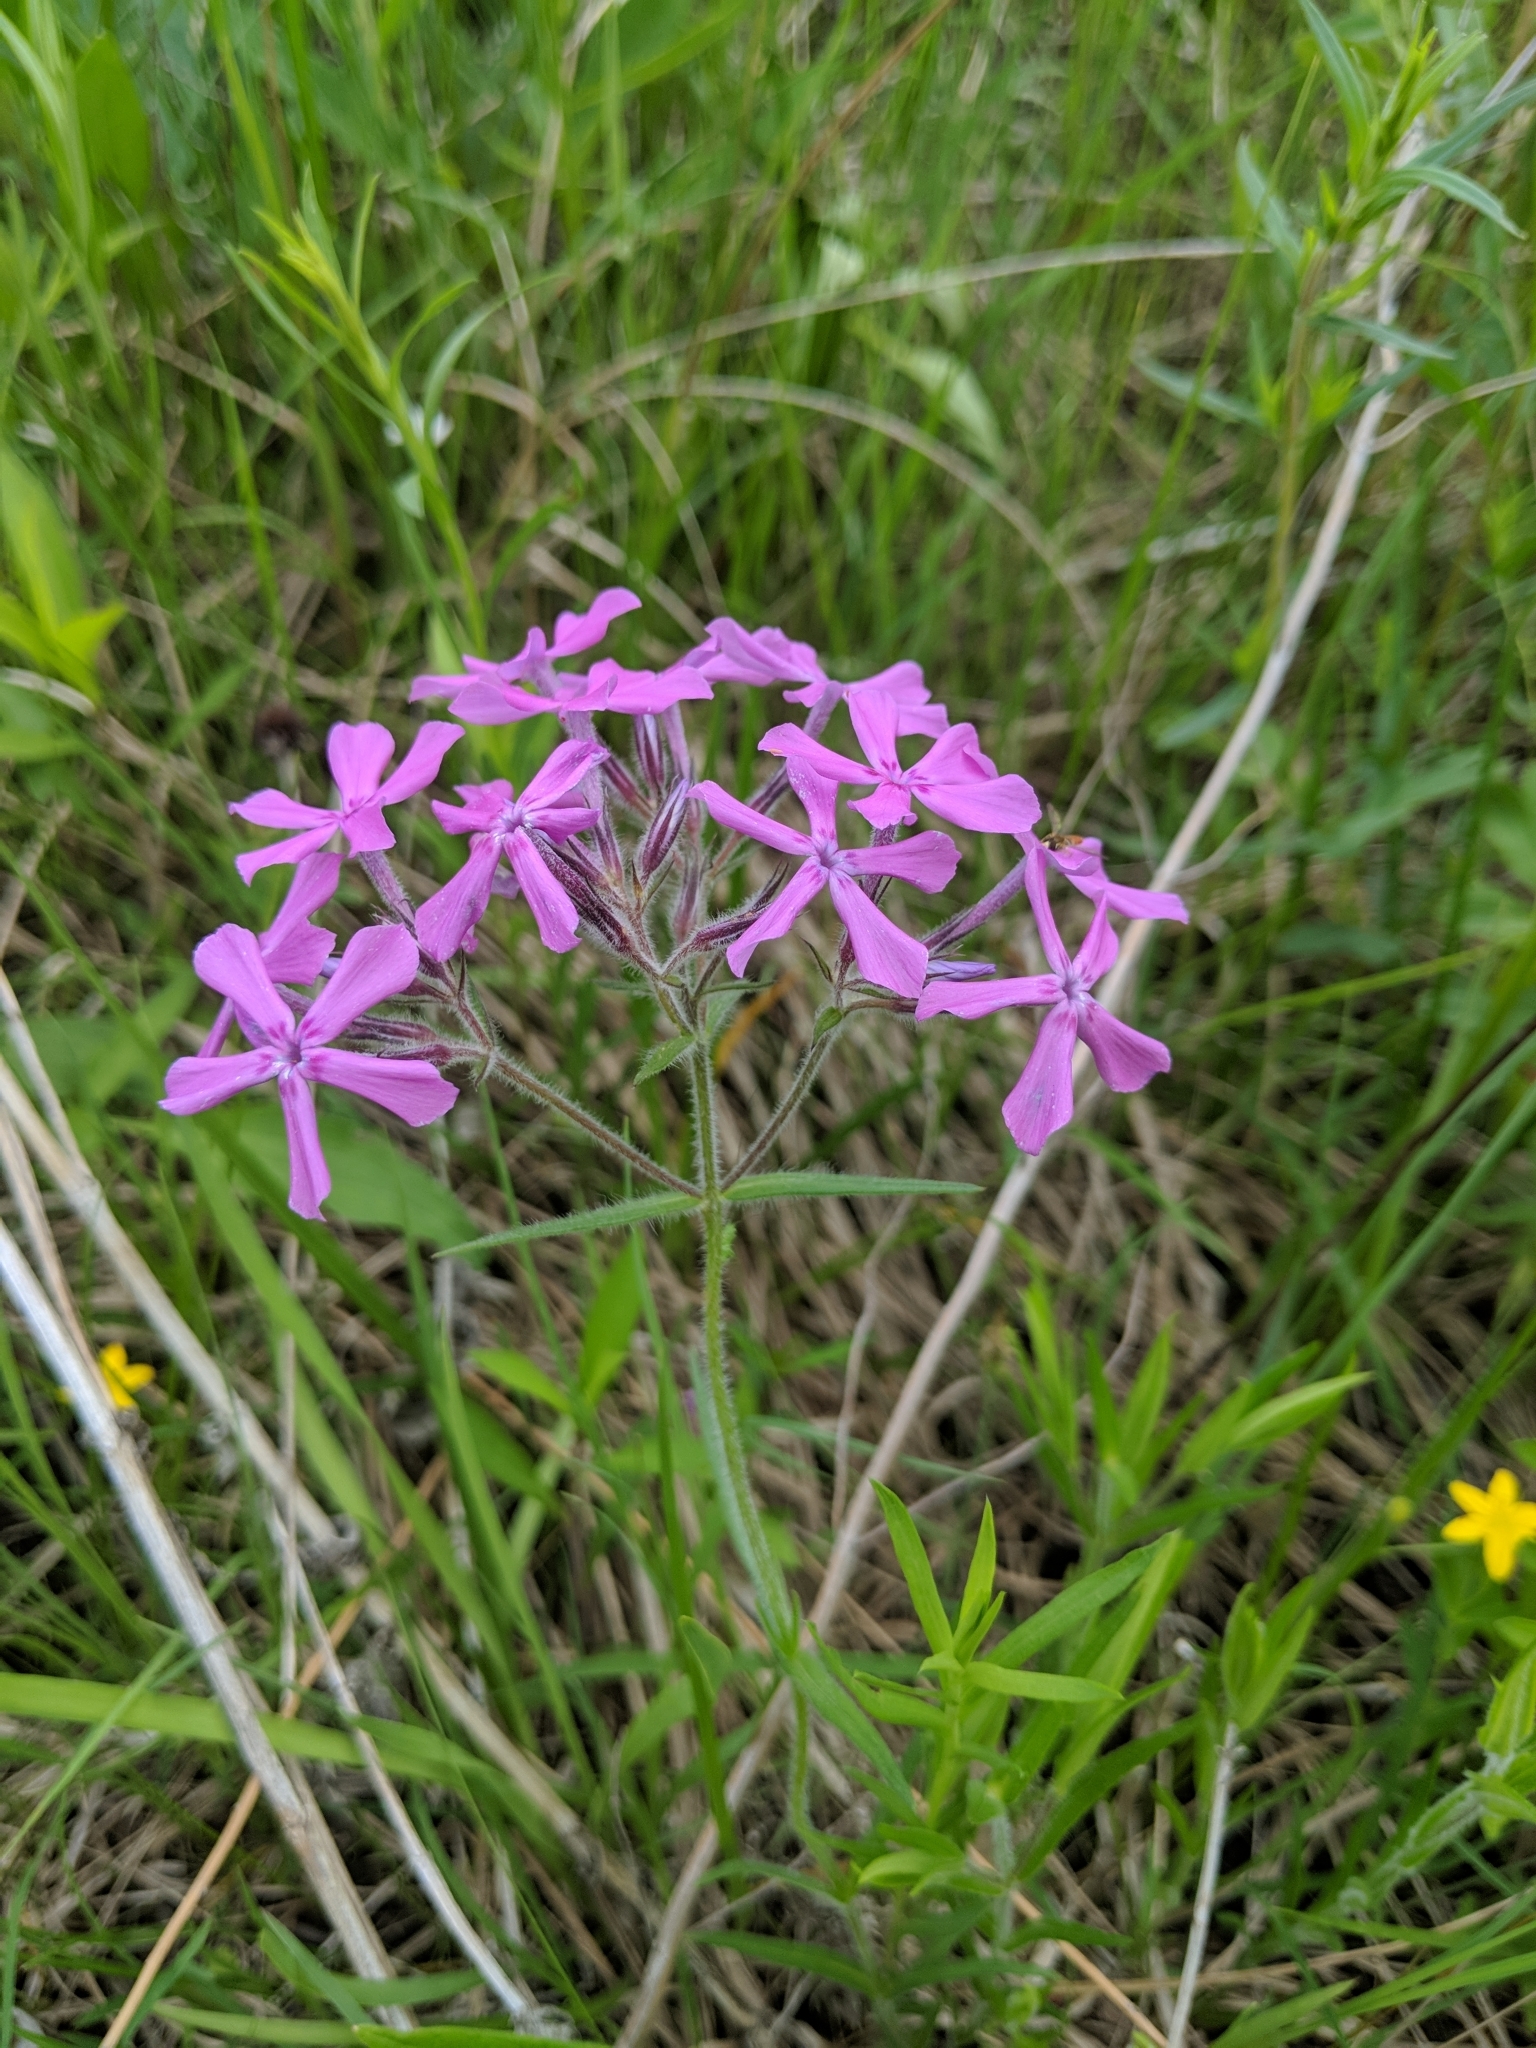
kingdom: Plantae
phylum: Tracheophyta
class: Magnoliopsida
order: Ericales
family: Polemoniaceae
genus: Phlox
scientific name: Phlox pilosa
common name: Prairie phlox
